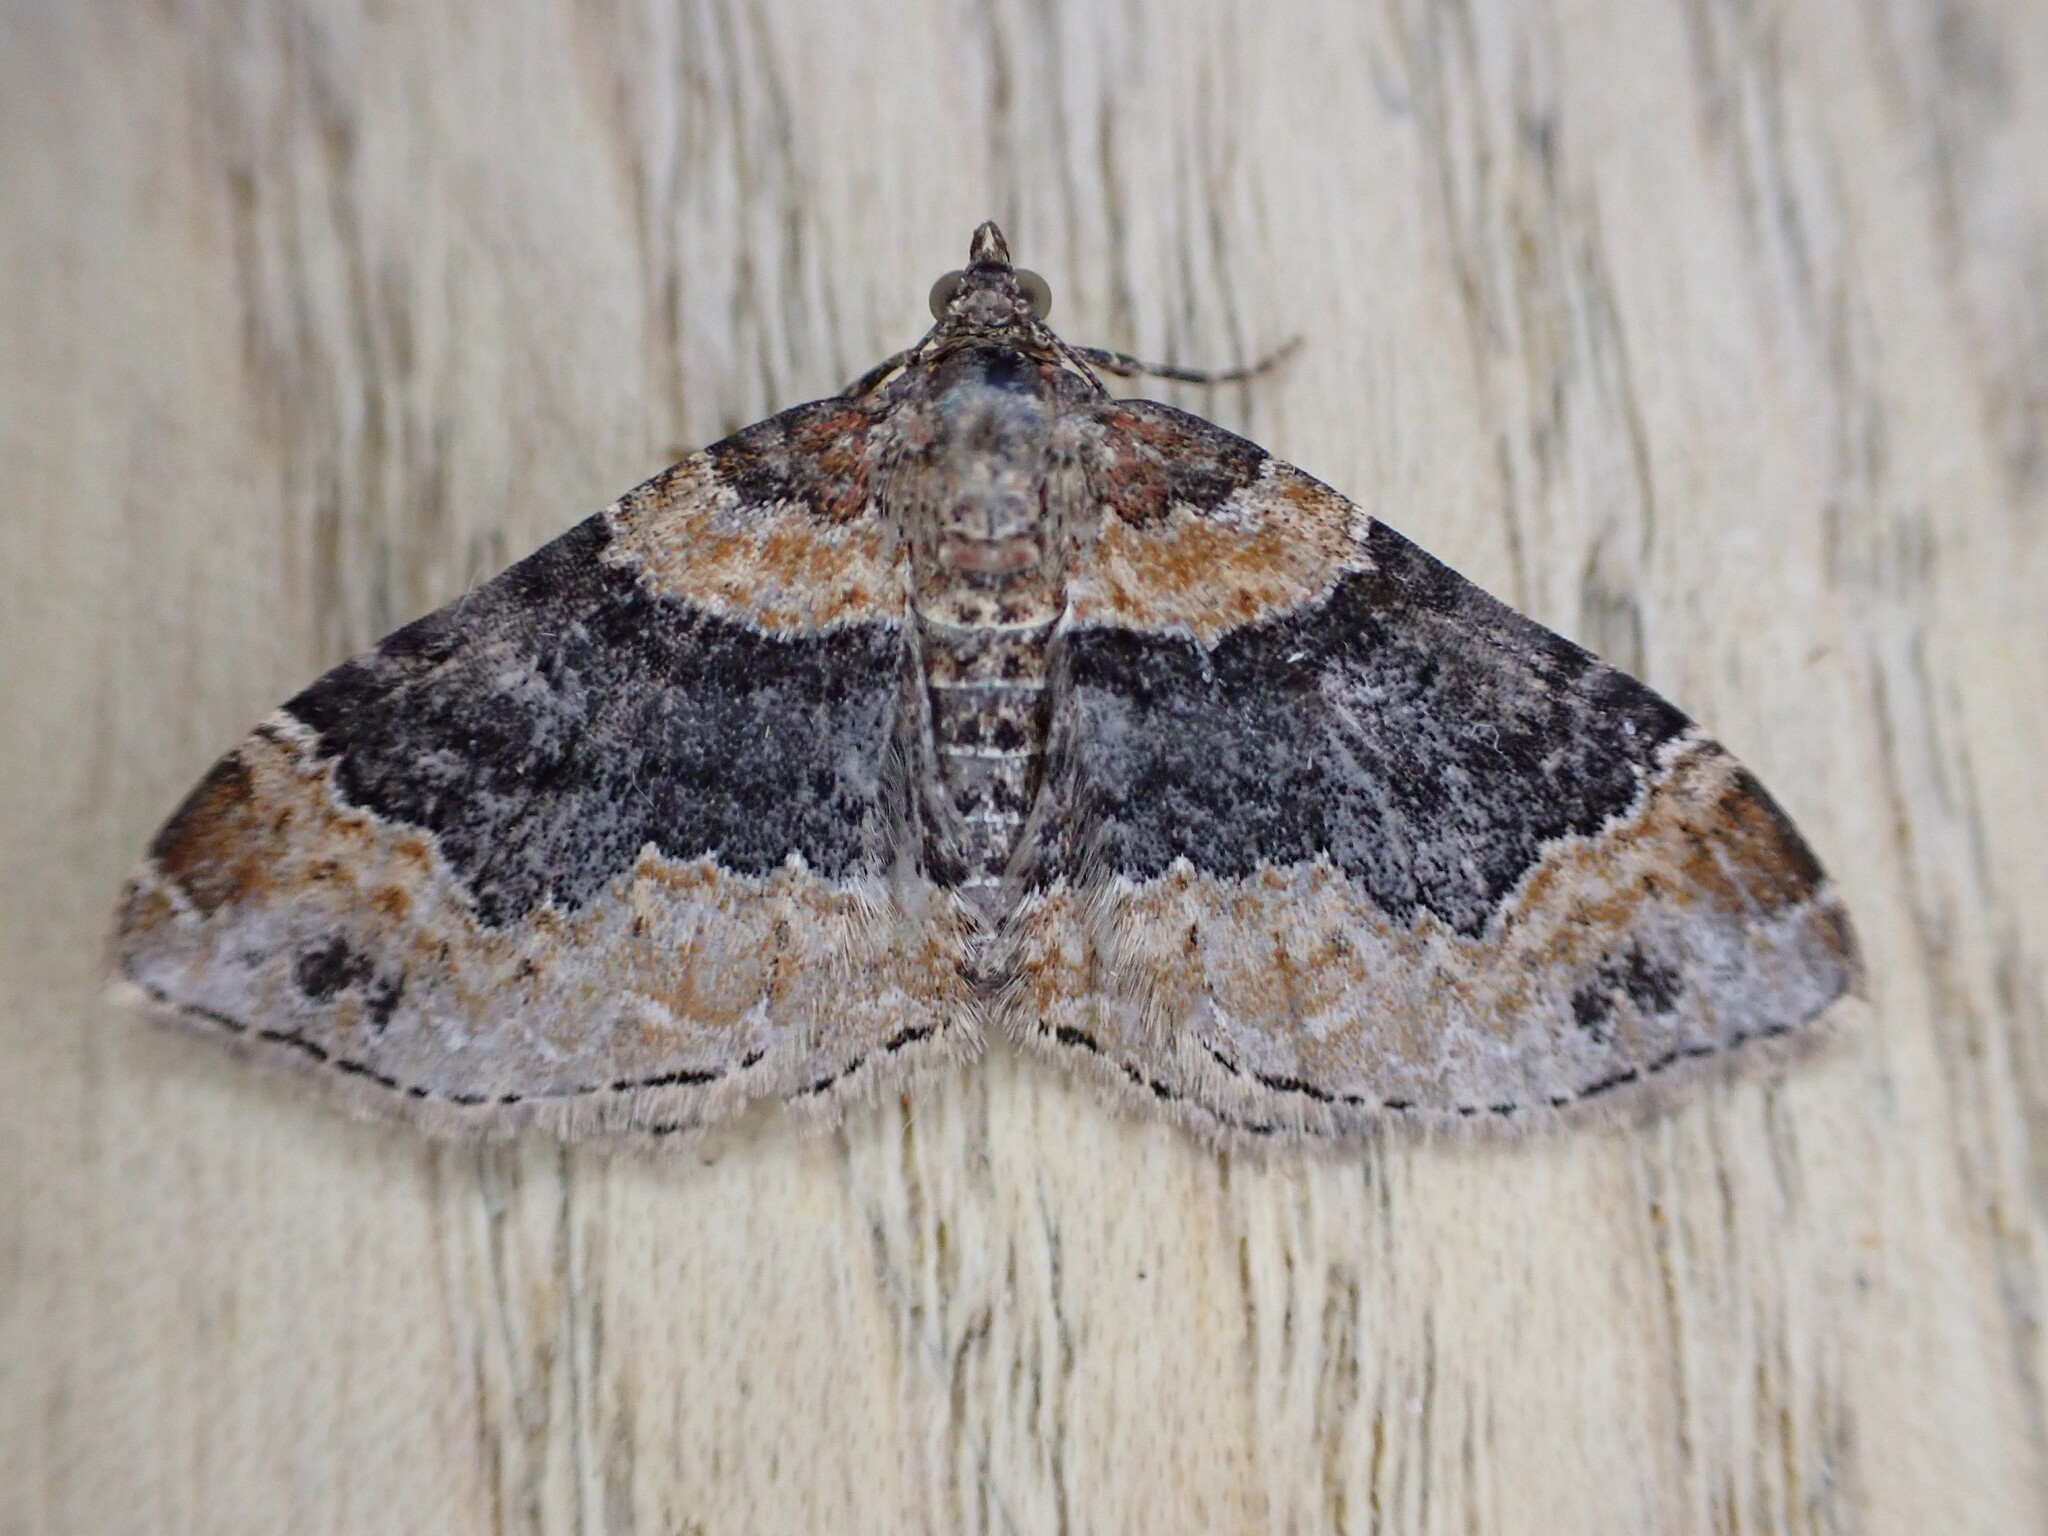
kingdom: Animalia
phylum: Arthropoda
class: Insecta
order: Lepidoptera
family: Geometridae
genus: Xanthorhoe
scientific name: Xanthorhoe ferrugata
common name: Dark-barred twin-spot carpet
